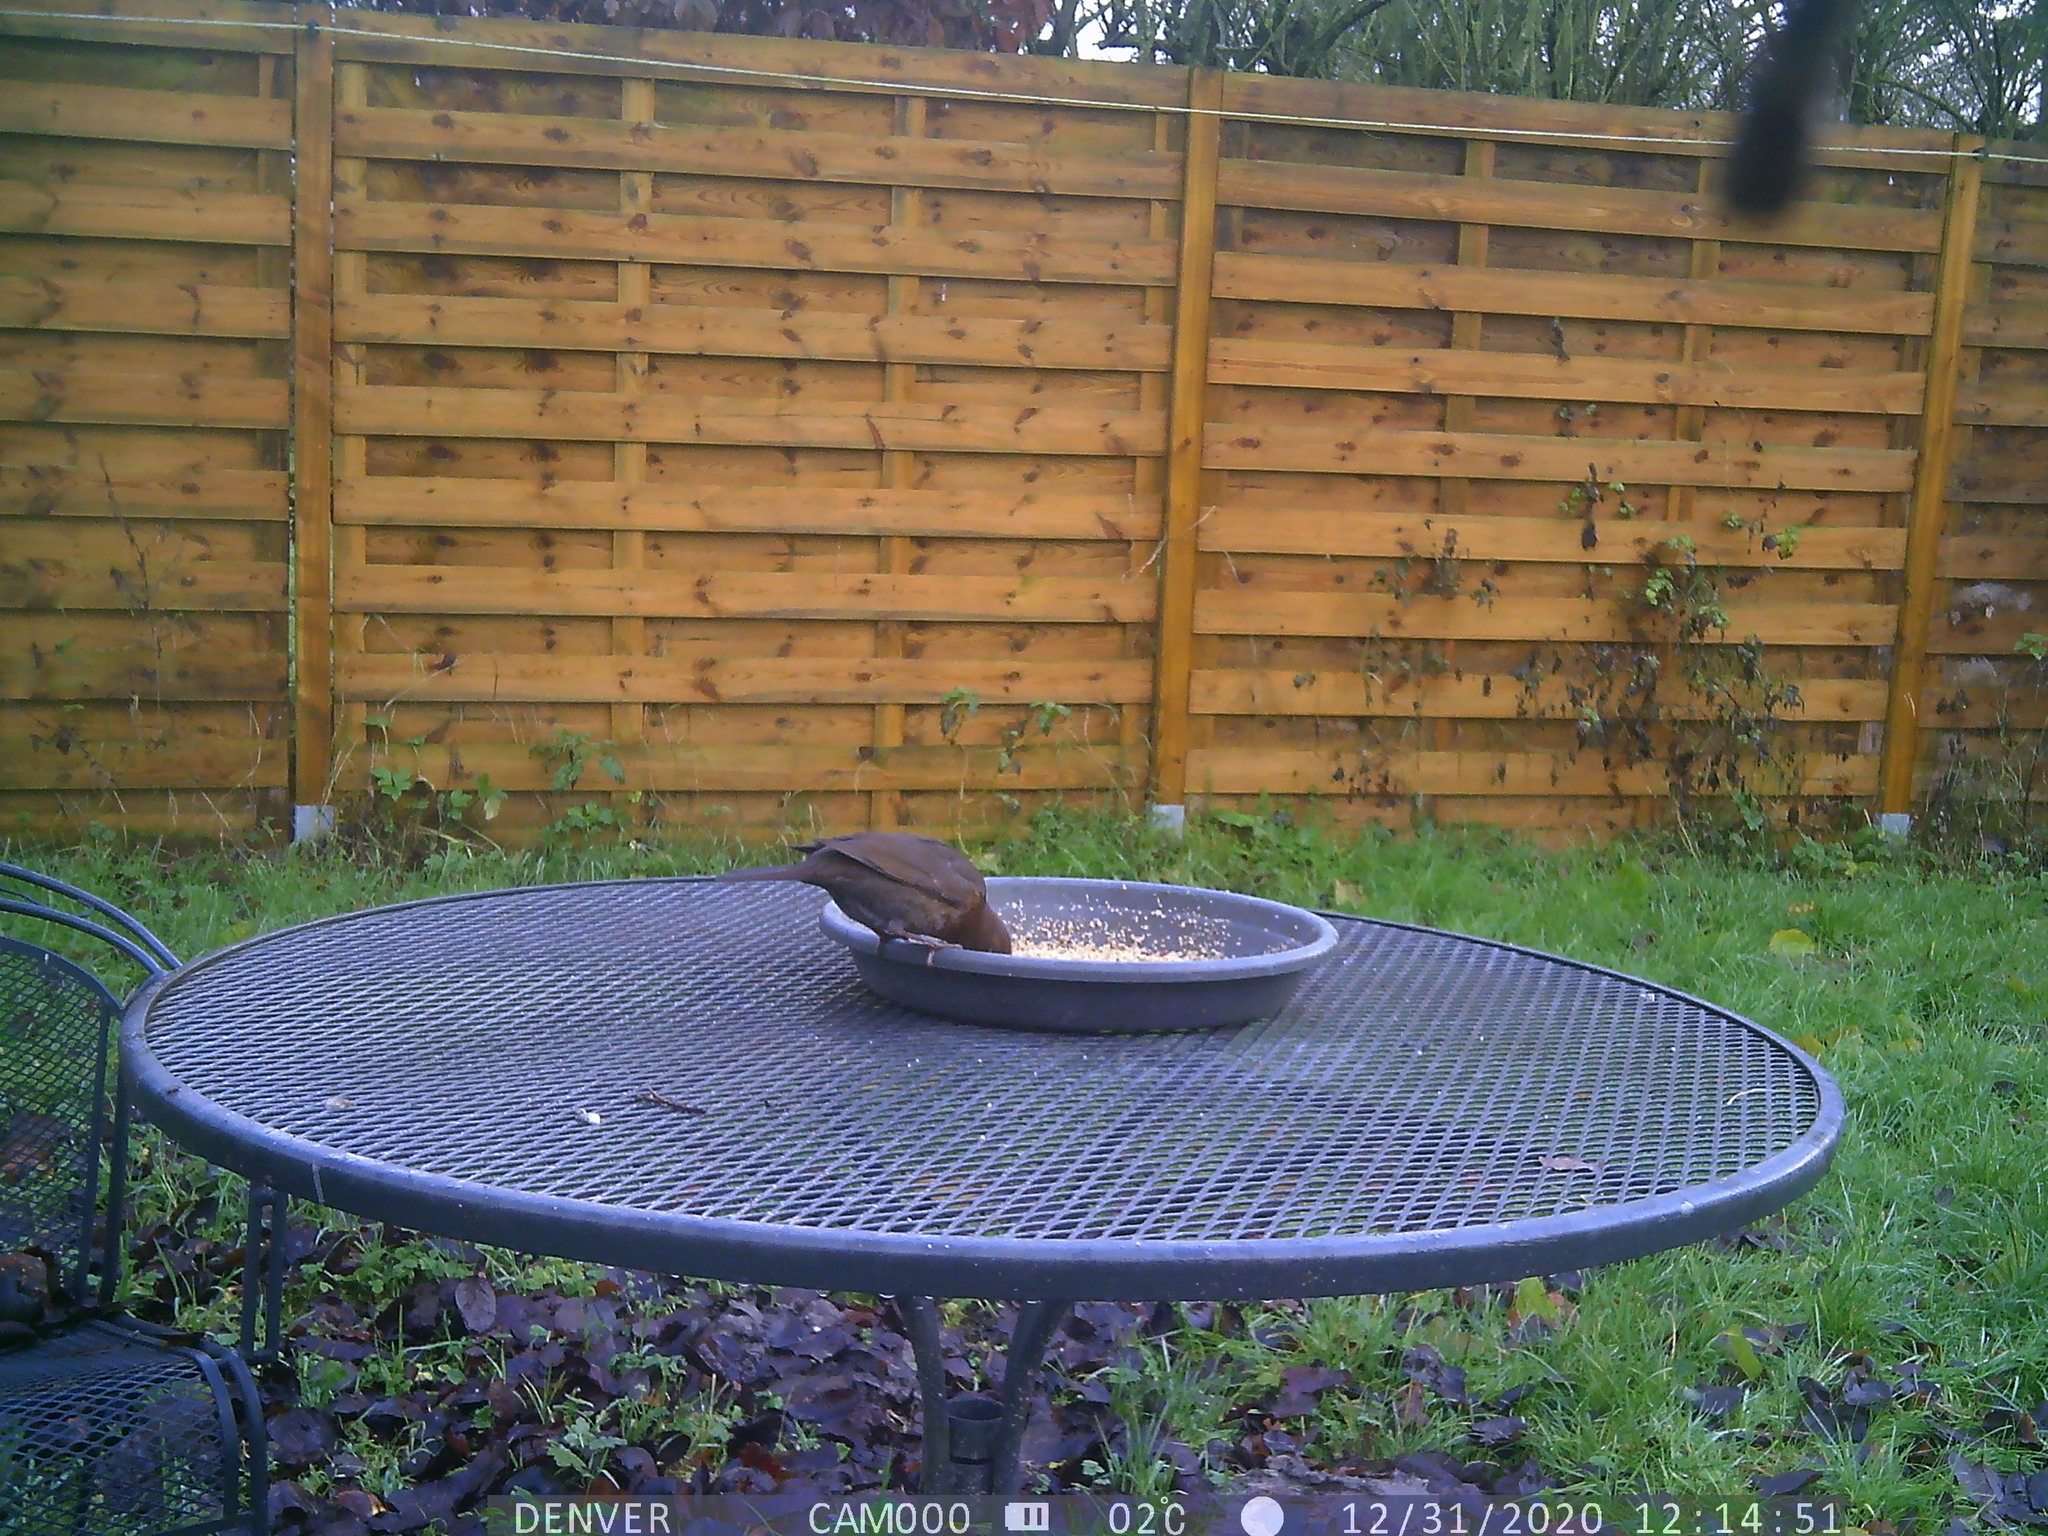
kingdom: Animalia
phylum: Chordata
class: Aves
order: Passeriformes
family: Turdidae
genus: Turdus
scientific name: Turdus merula
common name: Common blackbird
